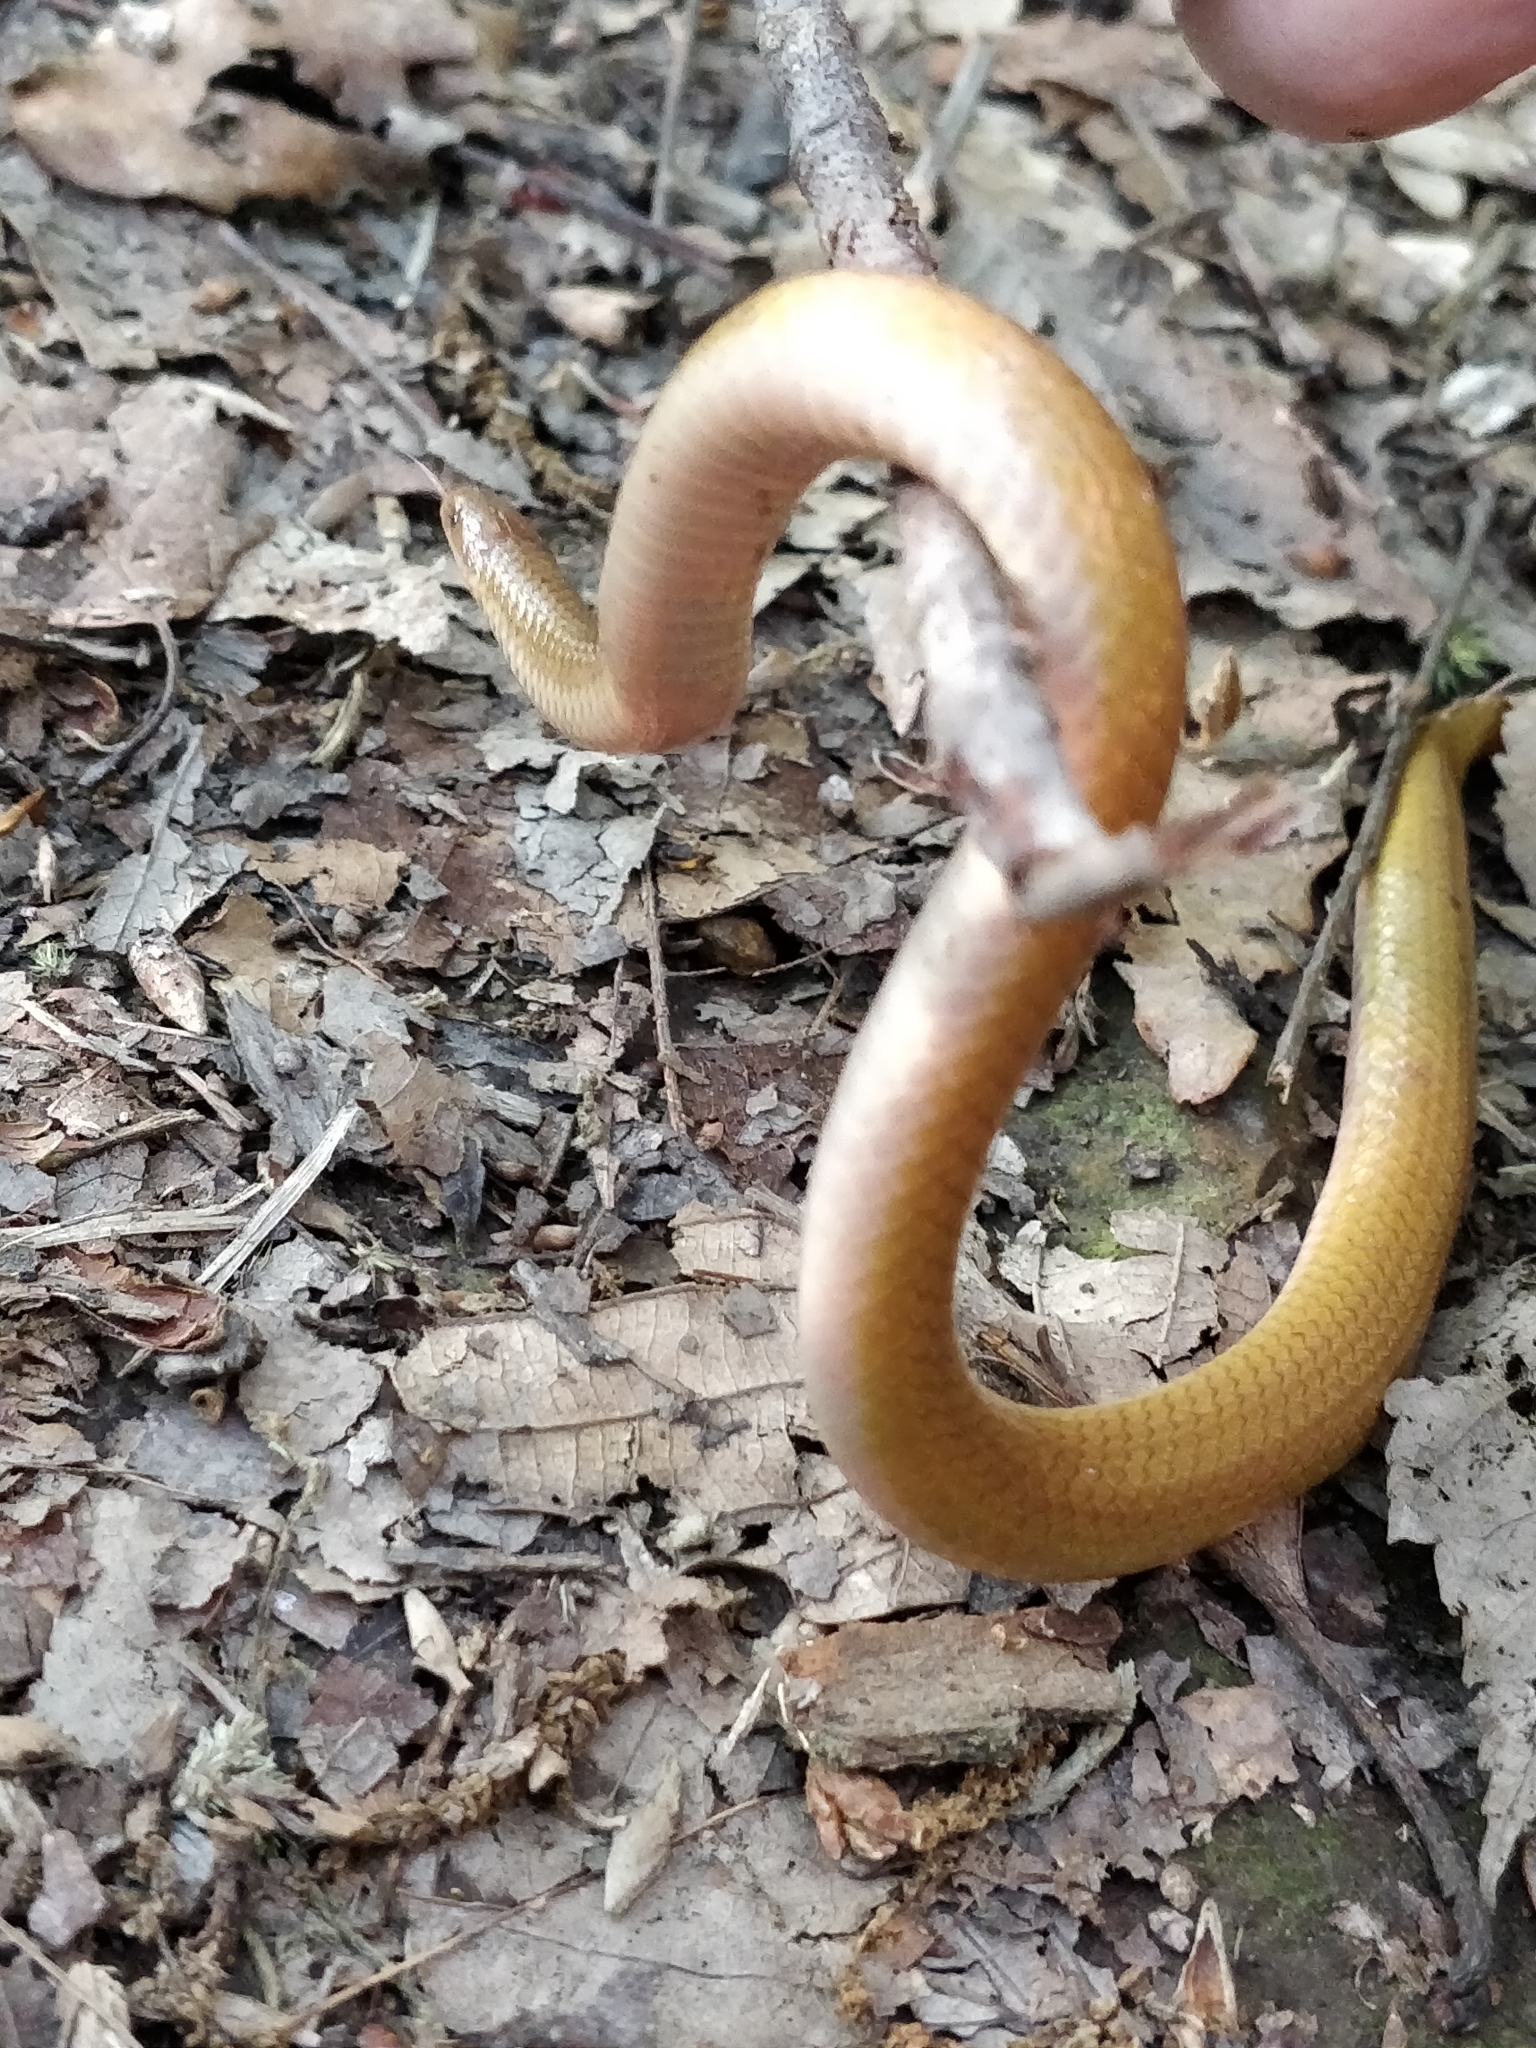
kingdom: Animalia
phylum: Chordata
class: Squamata
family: Colubridae
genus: Carphophis
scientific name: Carphophis amoenus
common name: Eastern worm snake
